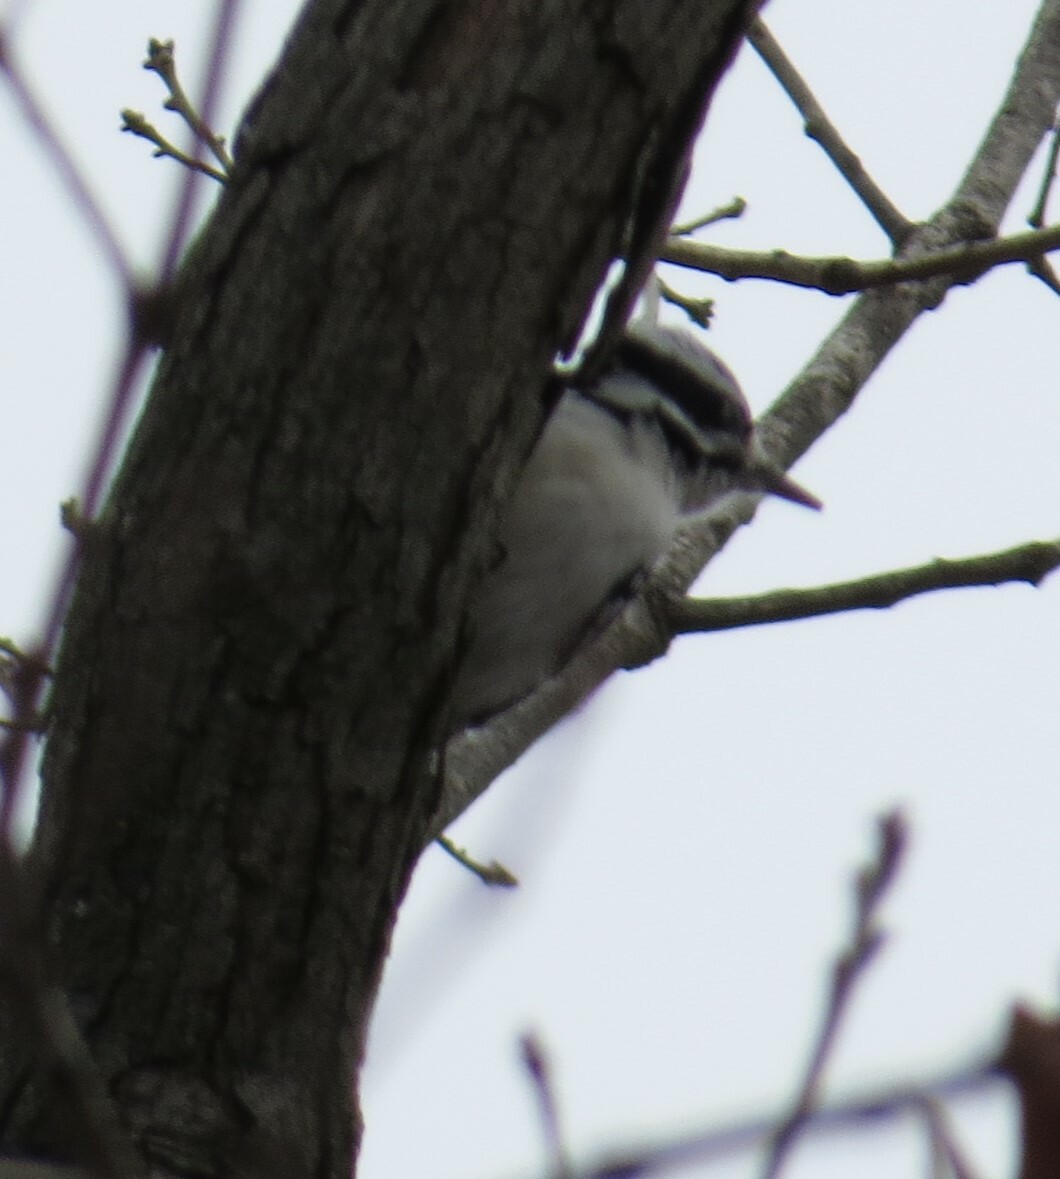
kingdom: Animalia
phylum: Chordata
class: Aves
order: Piciformes
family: Picidae
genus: Dryobates
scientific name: Dryobates pubescens
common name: Downy woodpecker
